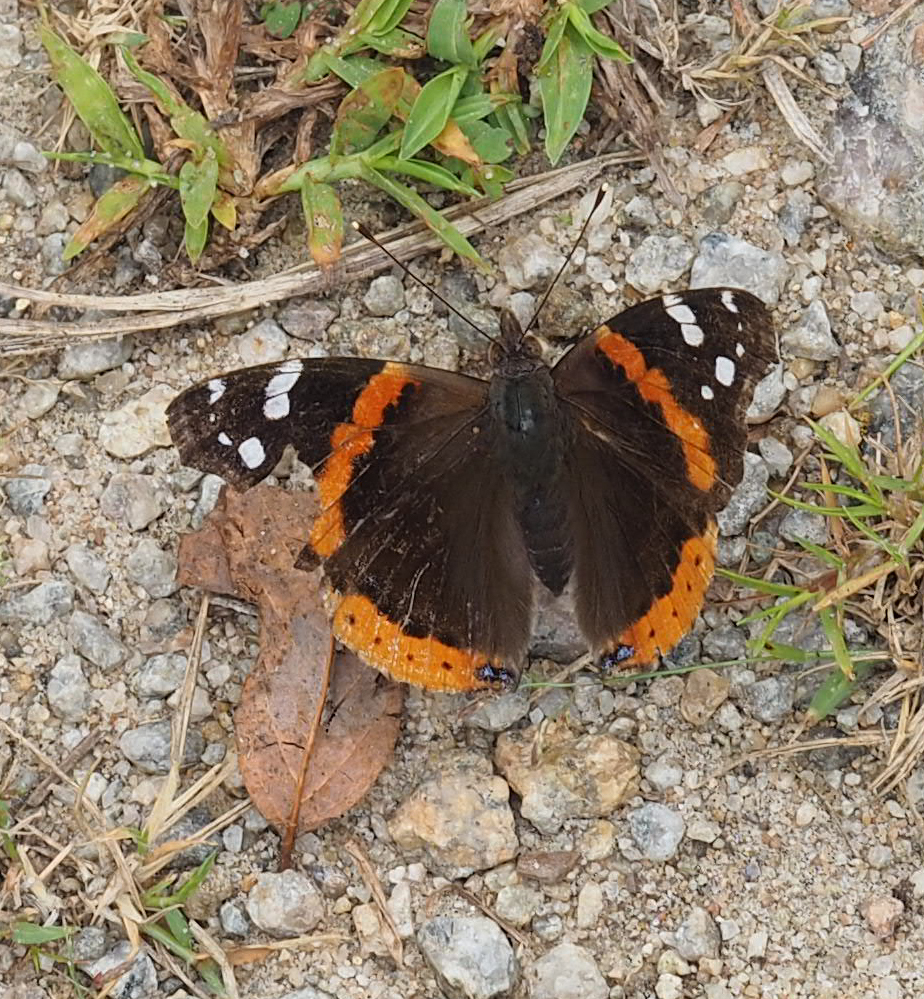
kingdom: Animalia
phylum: Arthropoda
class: Insecta
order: Lepidoptera
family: Nymphalidae
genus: Vanessa
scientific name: Vanessa atalanta
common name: Red admiral
